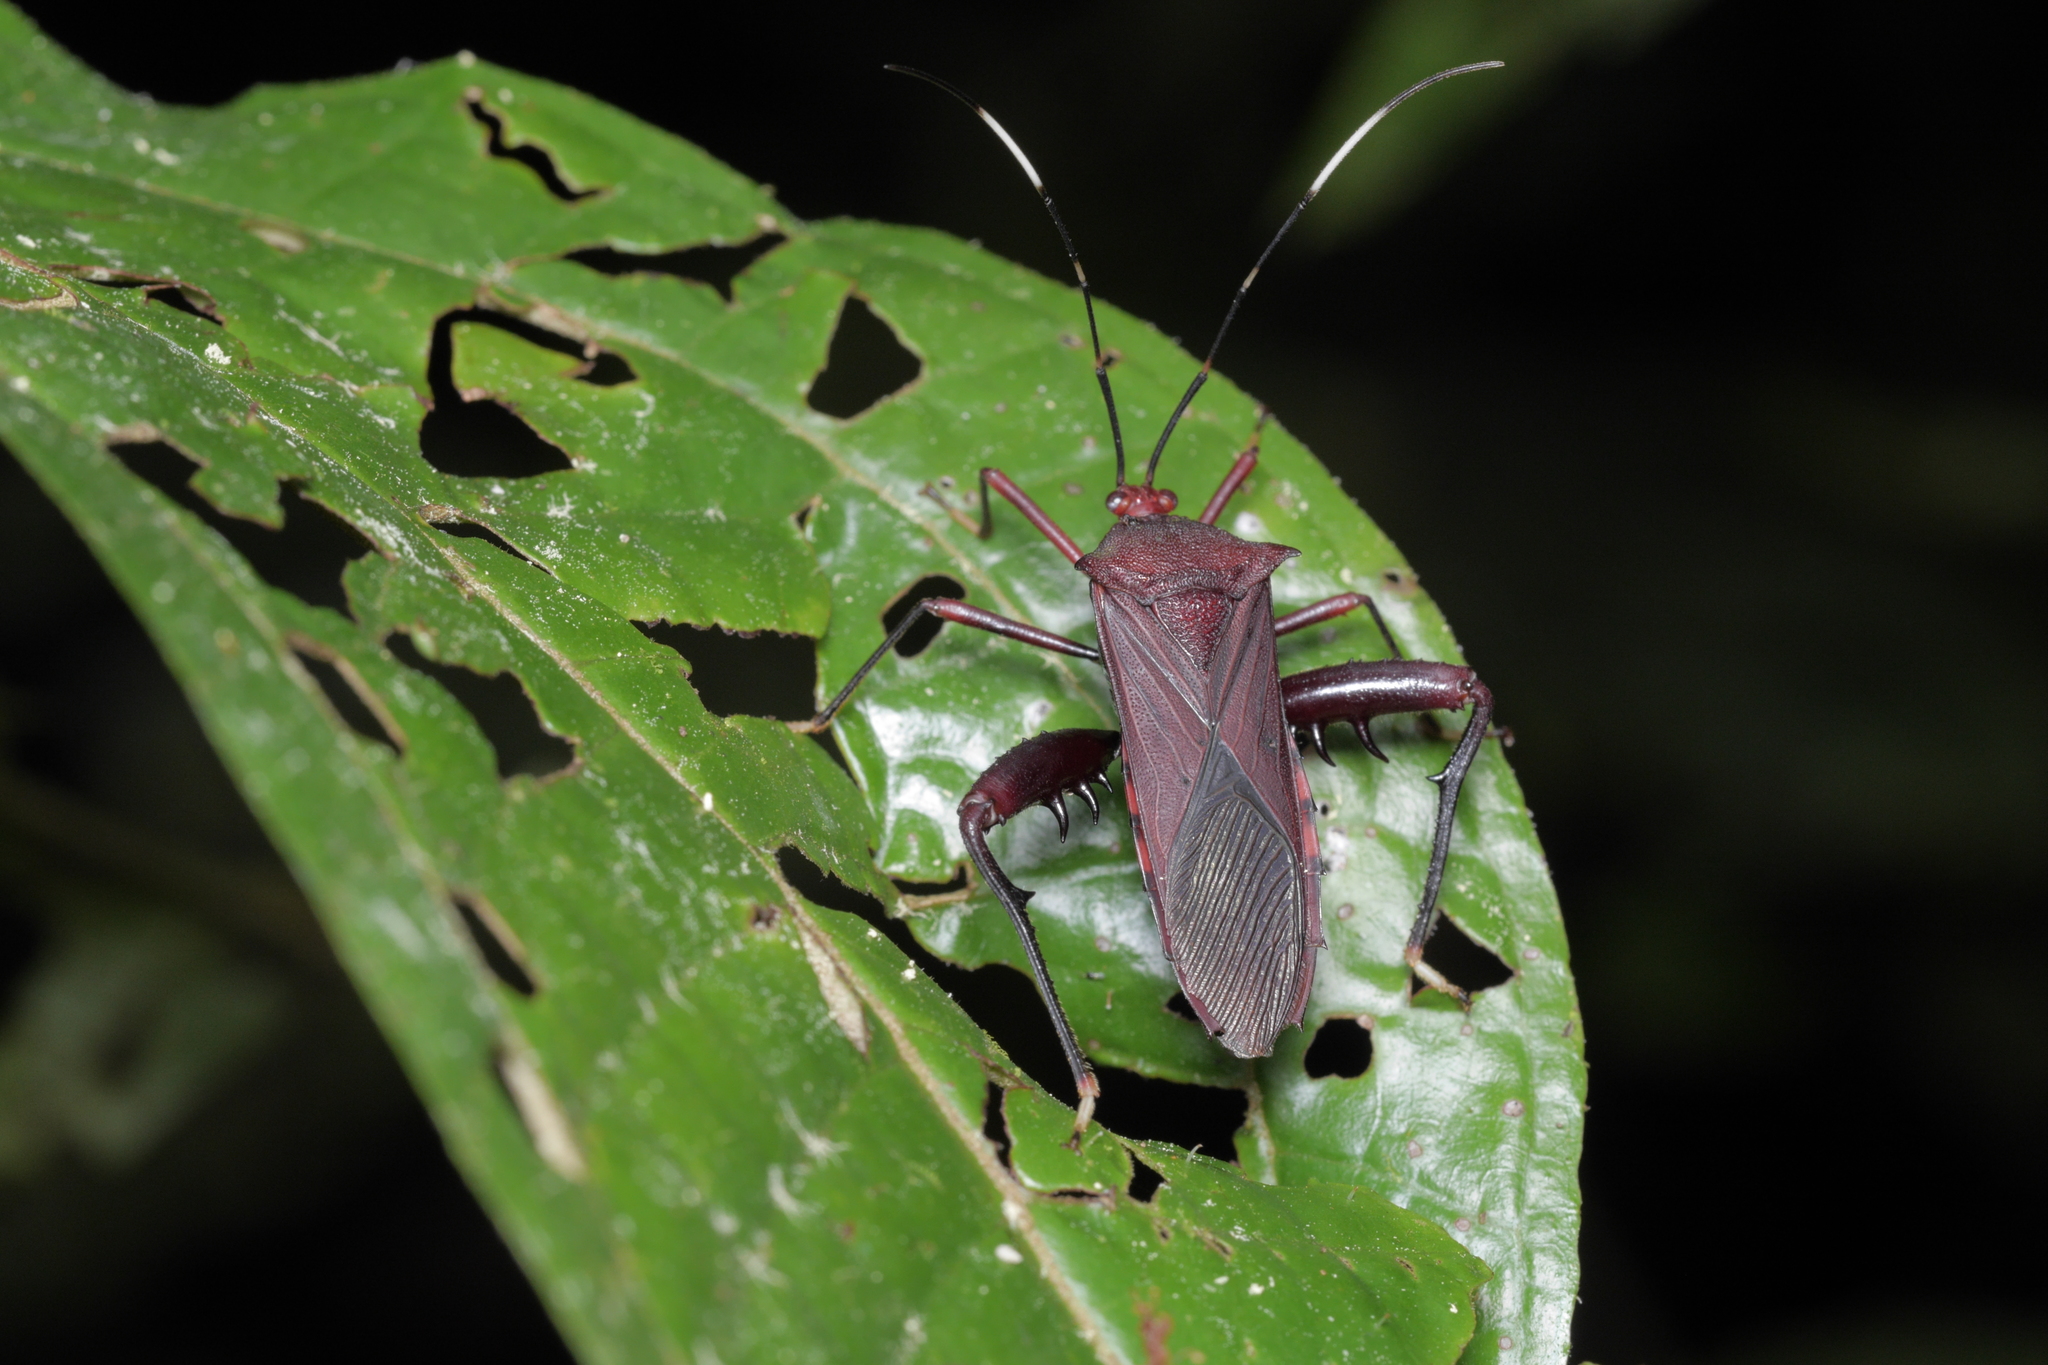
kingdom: Animalia
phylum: Arthropoda
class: Insecta
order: Hemiptera
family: Coreidae
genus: Nematopus
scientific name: Nematopus cribratus
